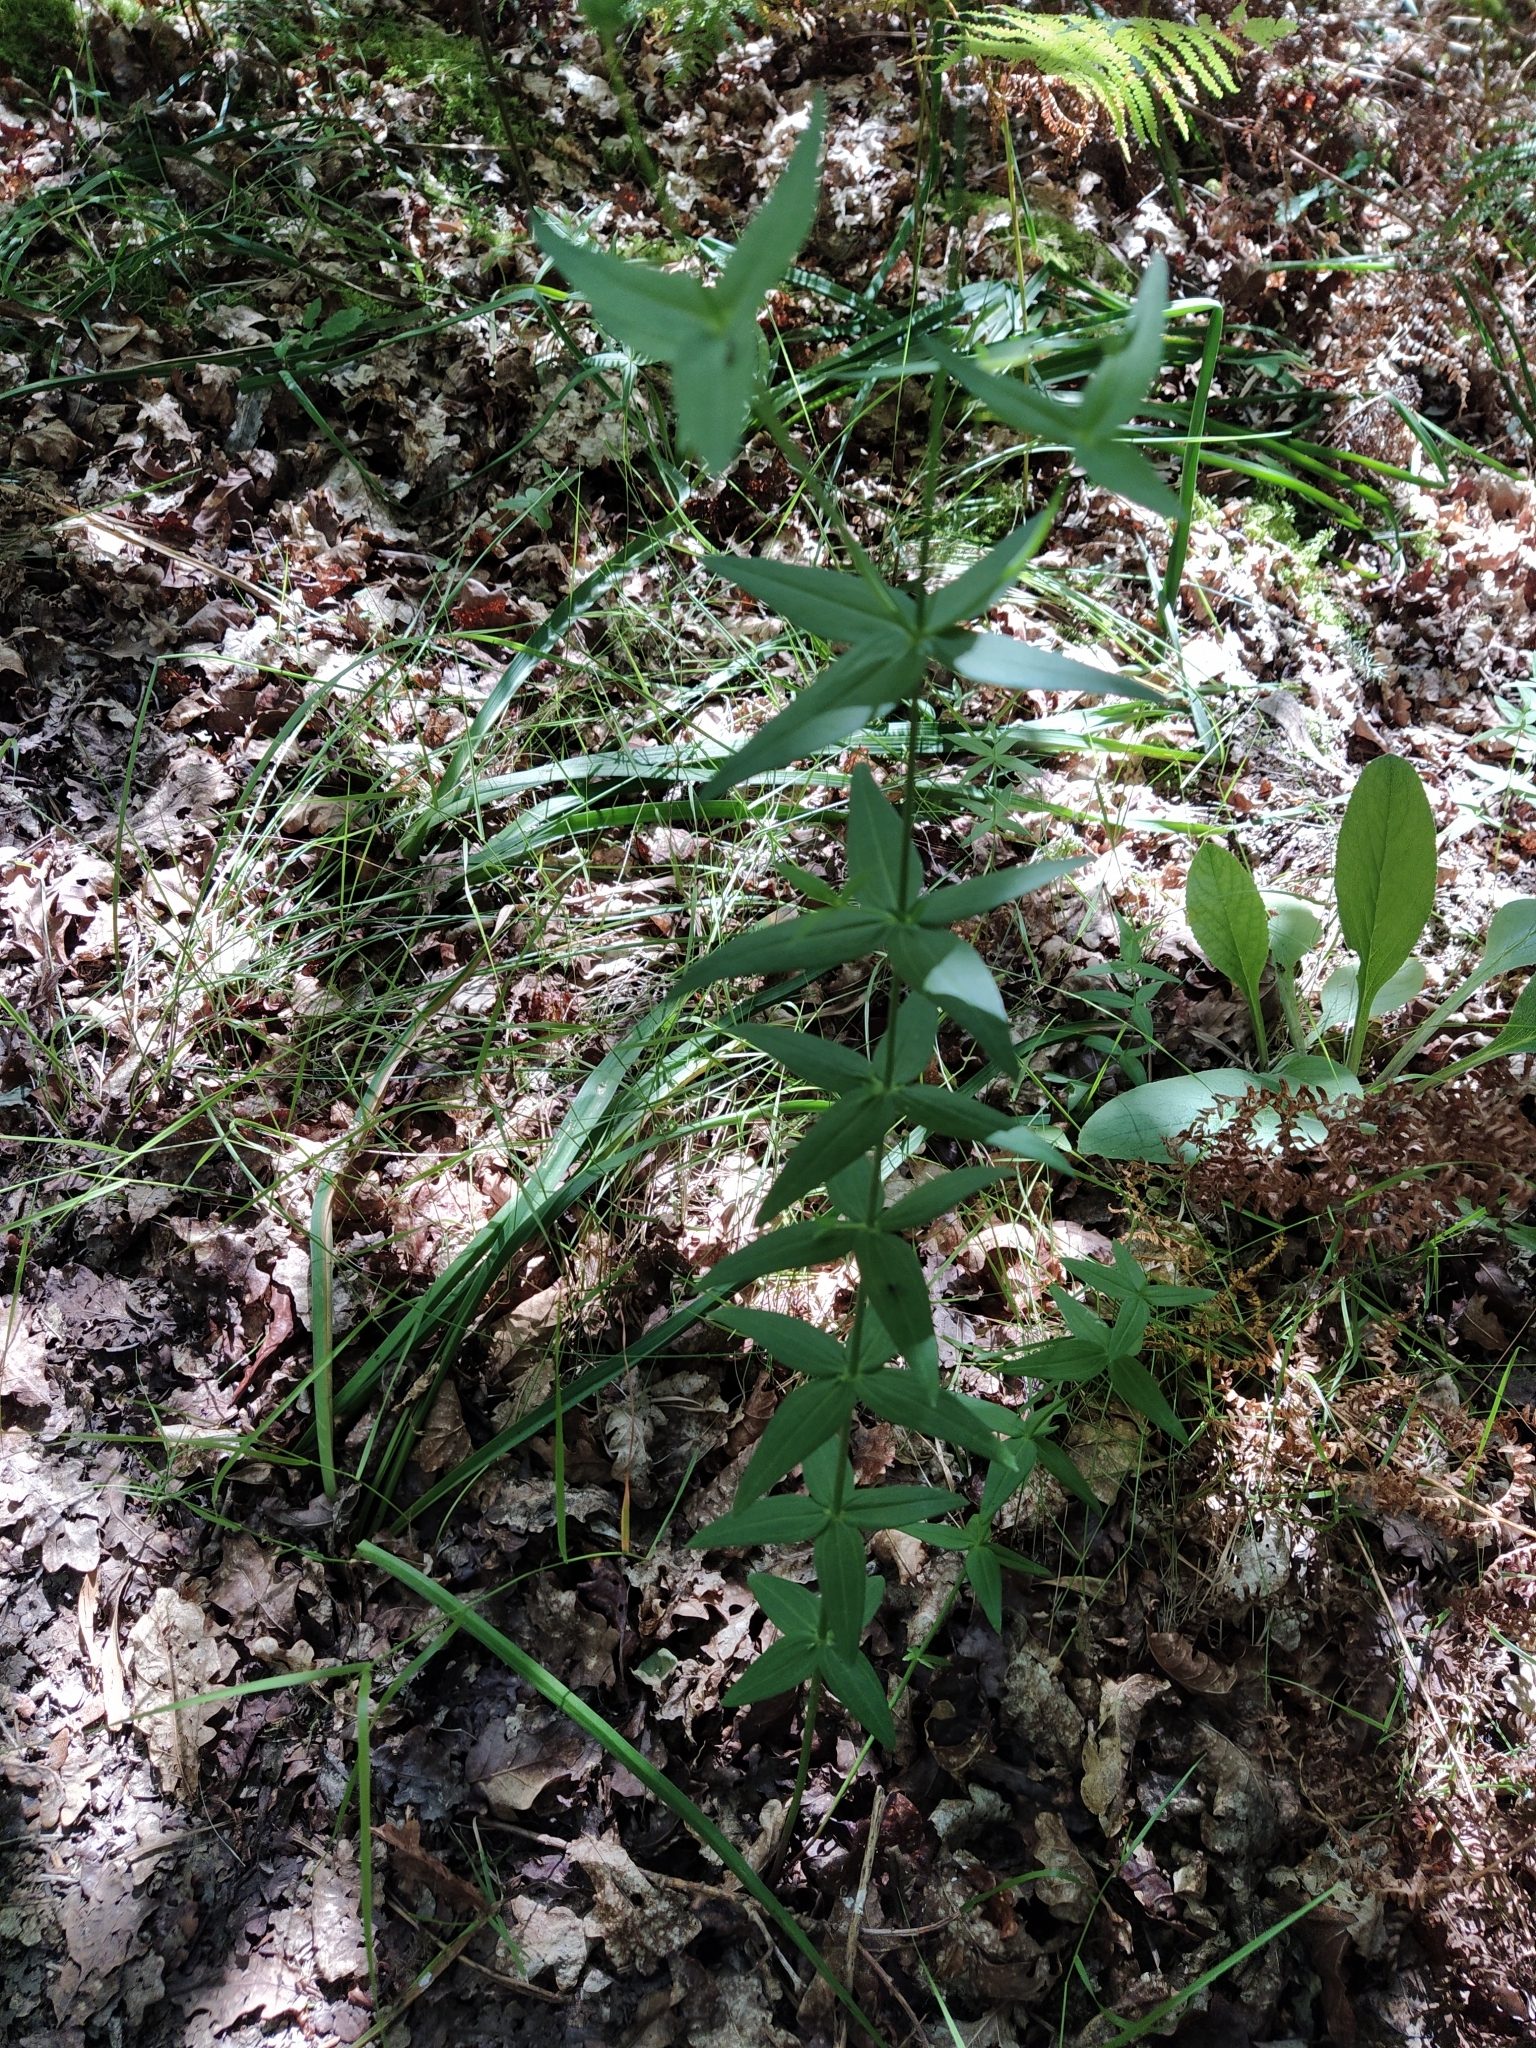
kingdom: Plantae
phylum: Tracheophyta
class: Magnoliopsida
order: Lamiales
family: Plantaginaceae
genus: Linaria
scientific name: Linaria triornithophora
